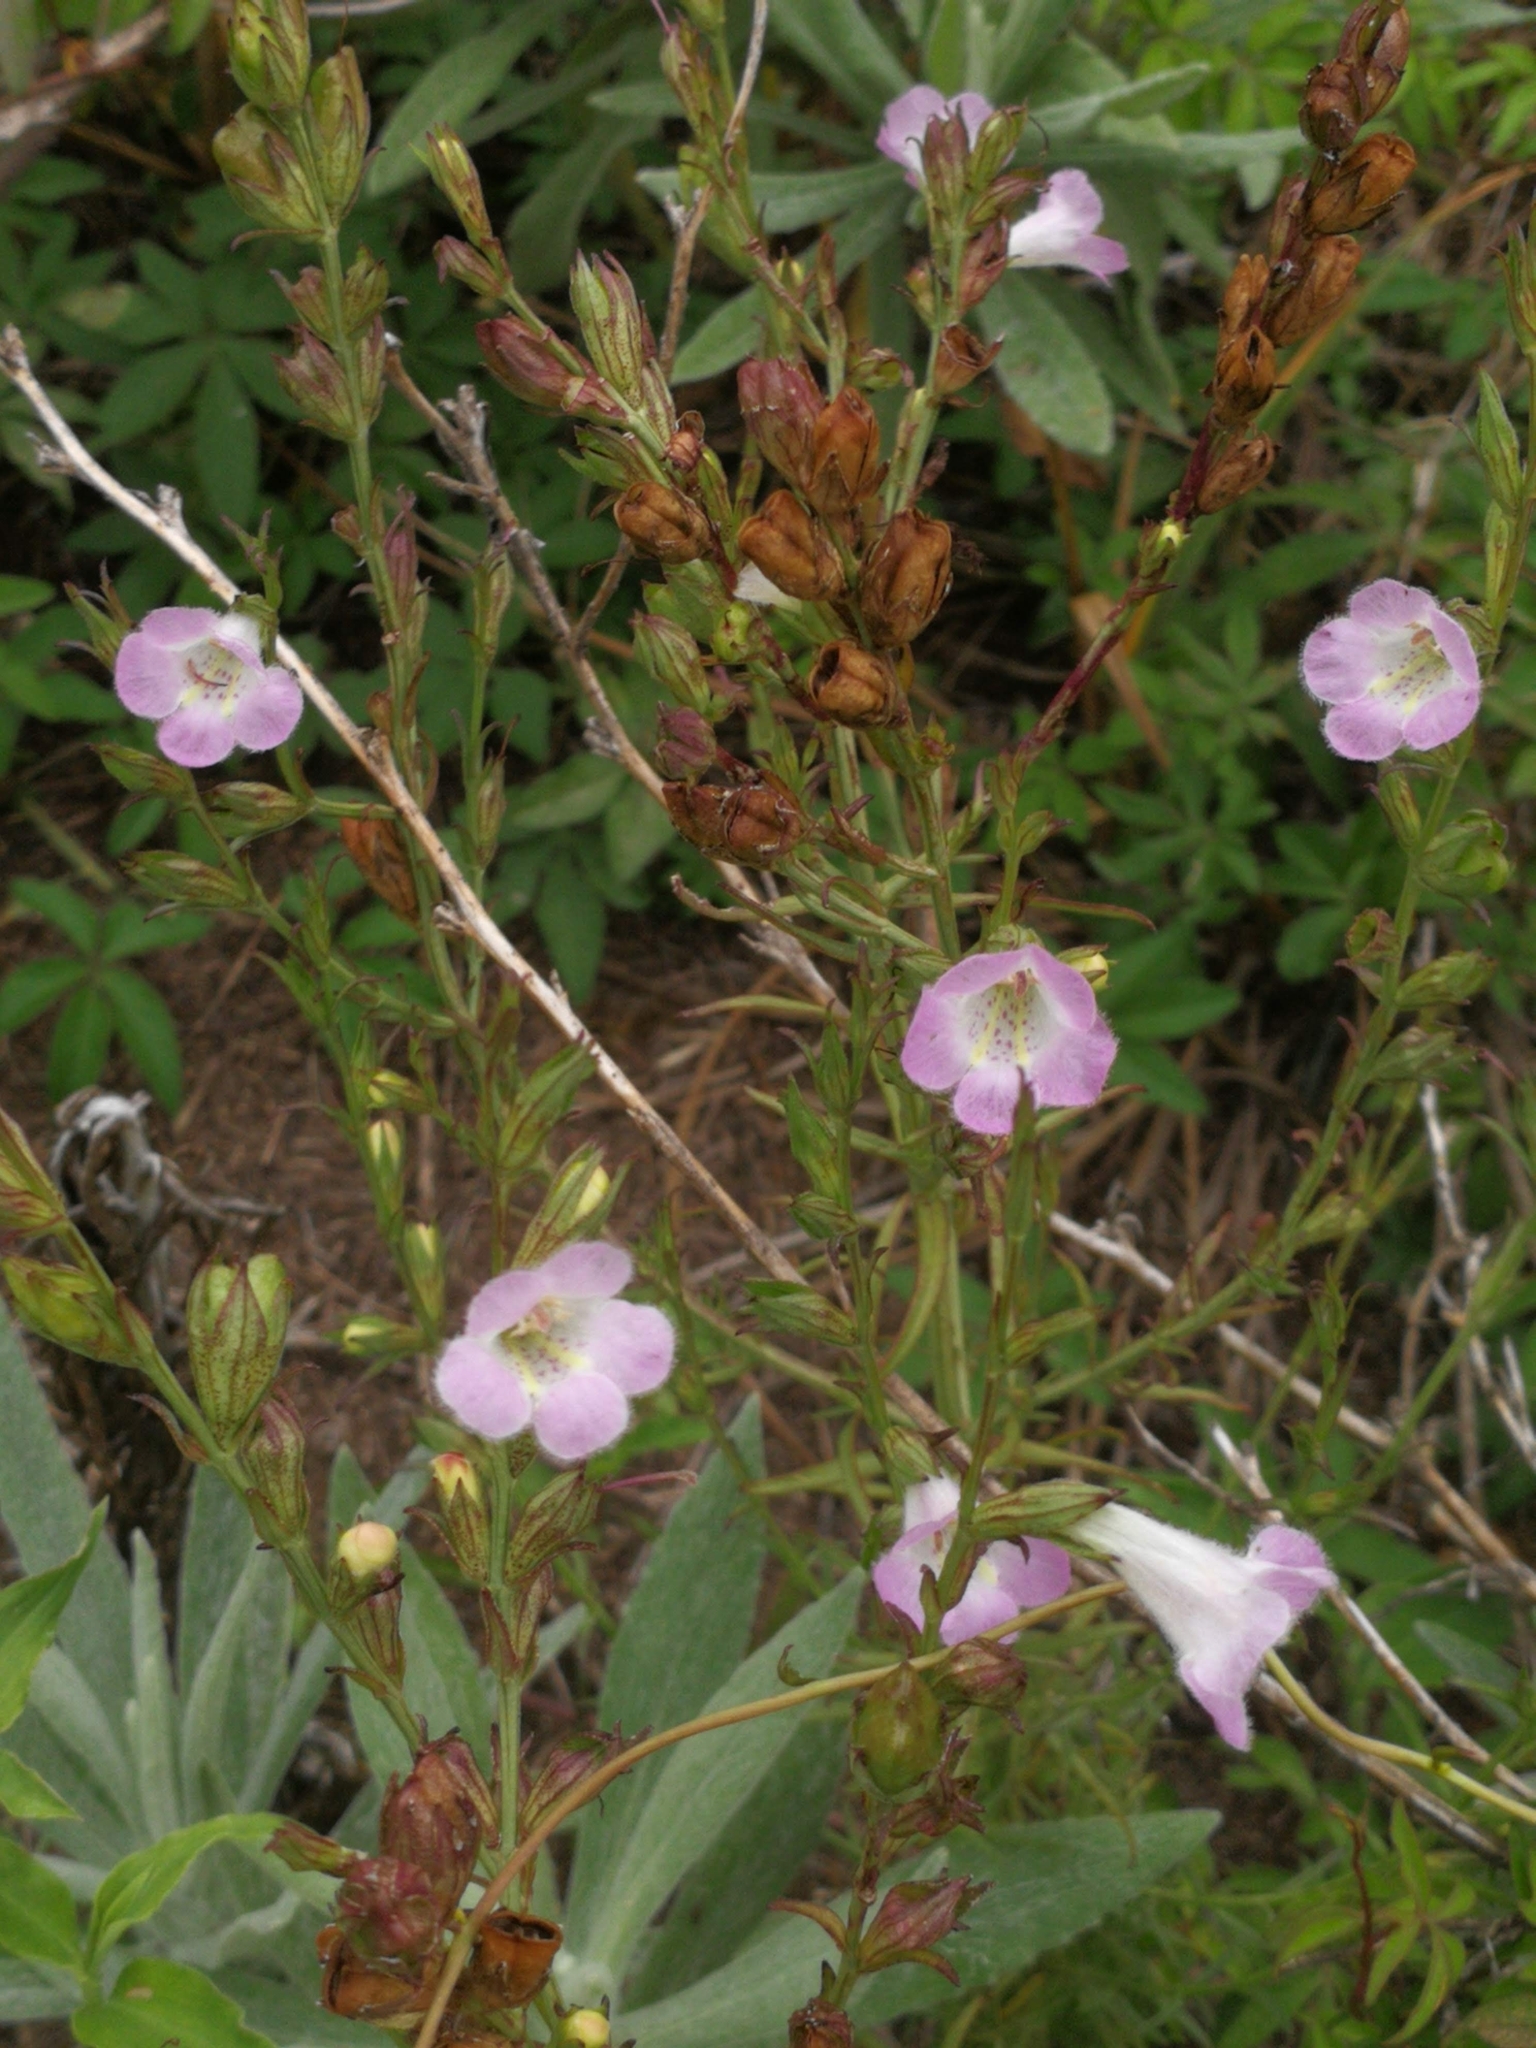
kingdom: Plantae
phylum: Tracheophyta
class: Magnoliopsida
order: Lamiales
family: Orobanchaceae
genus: Agalinis
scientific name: Agalinis communis
